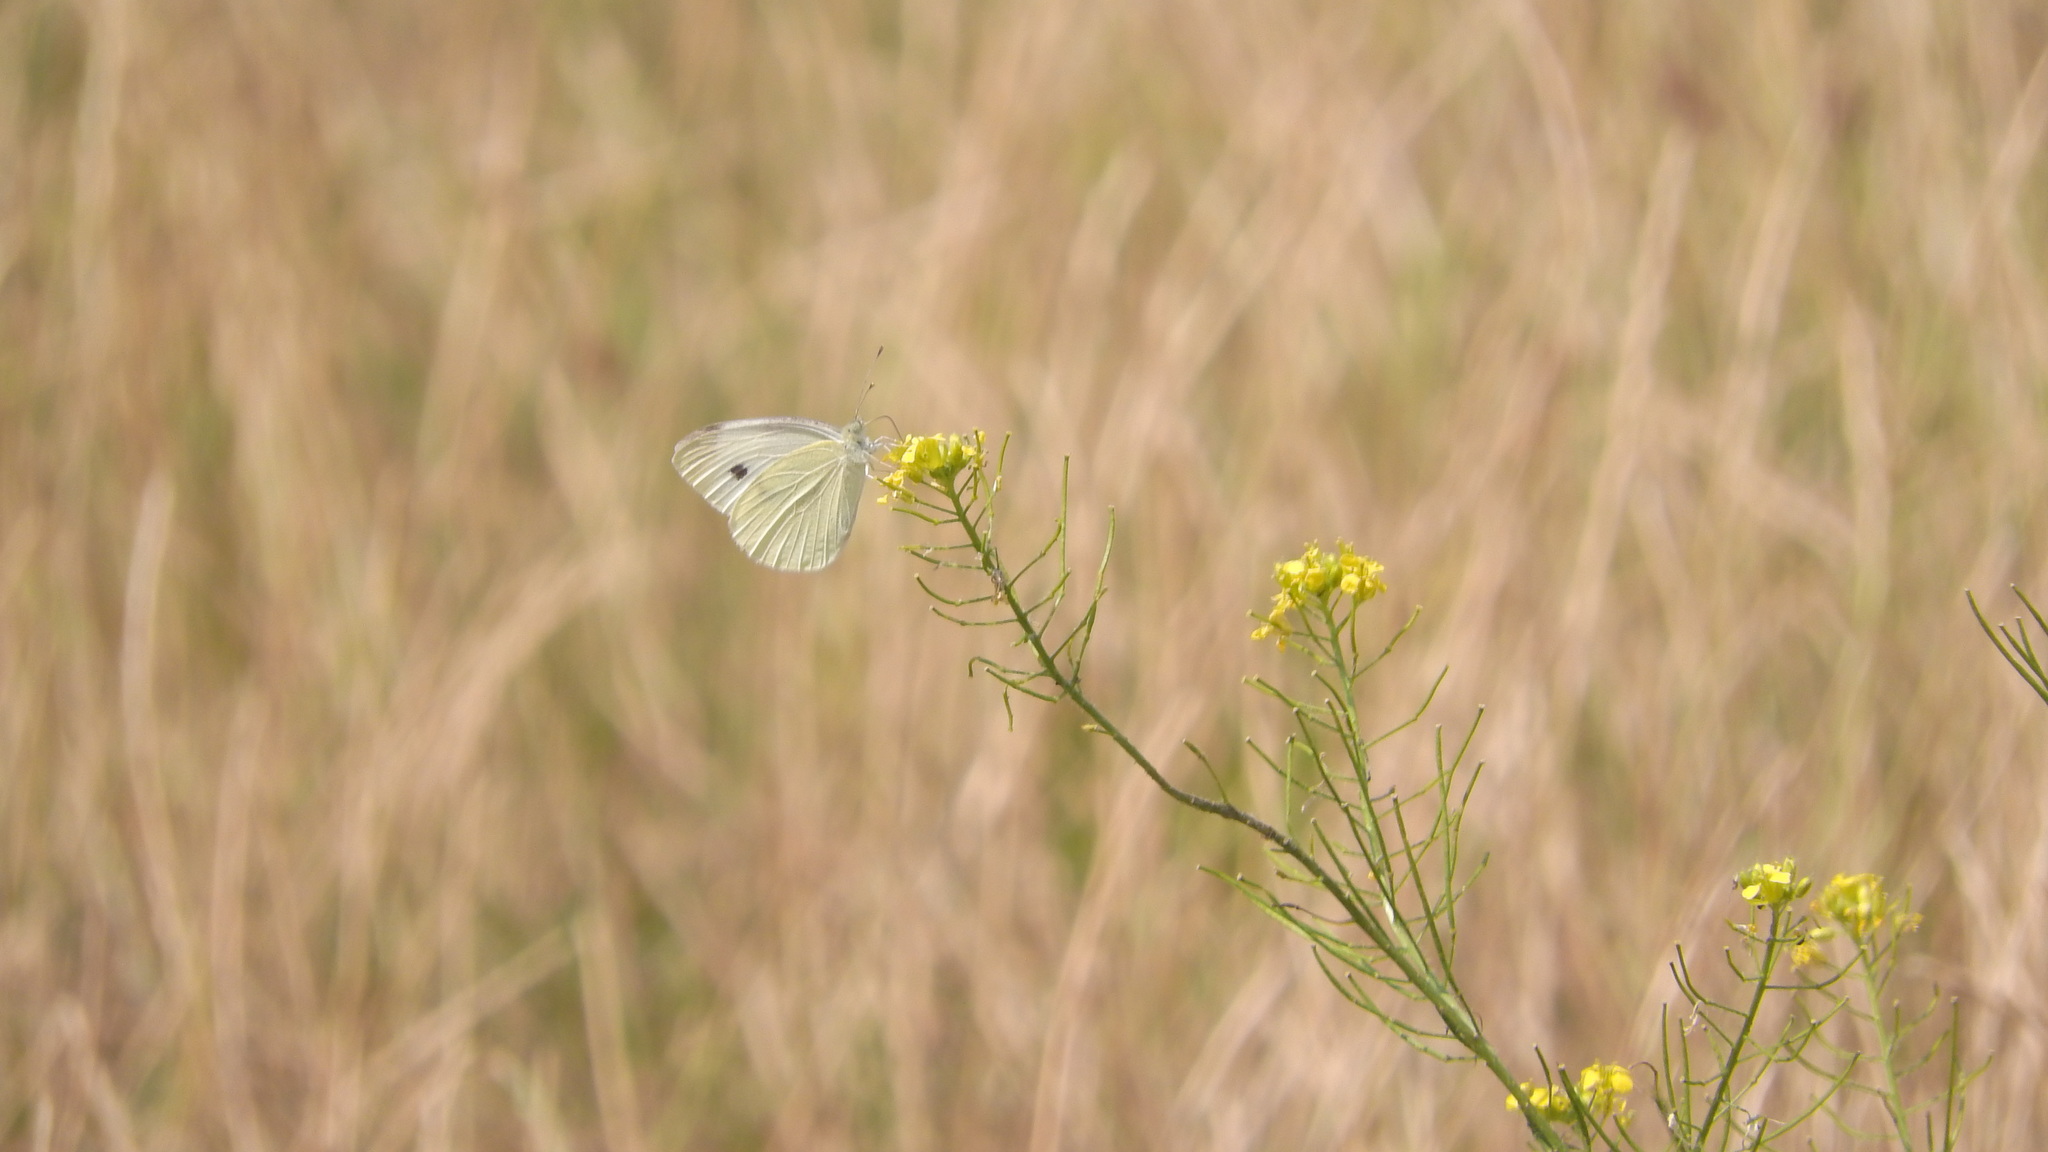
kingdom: Animalia
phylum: Arthropoda
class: Insecta
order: Lepidoptera
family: Pieridae
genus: Pieris
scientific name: Pieris rapae
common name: Small white
